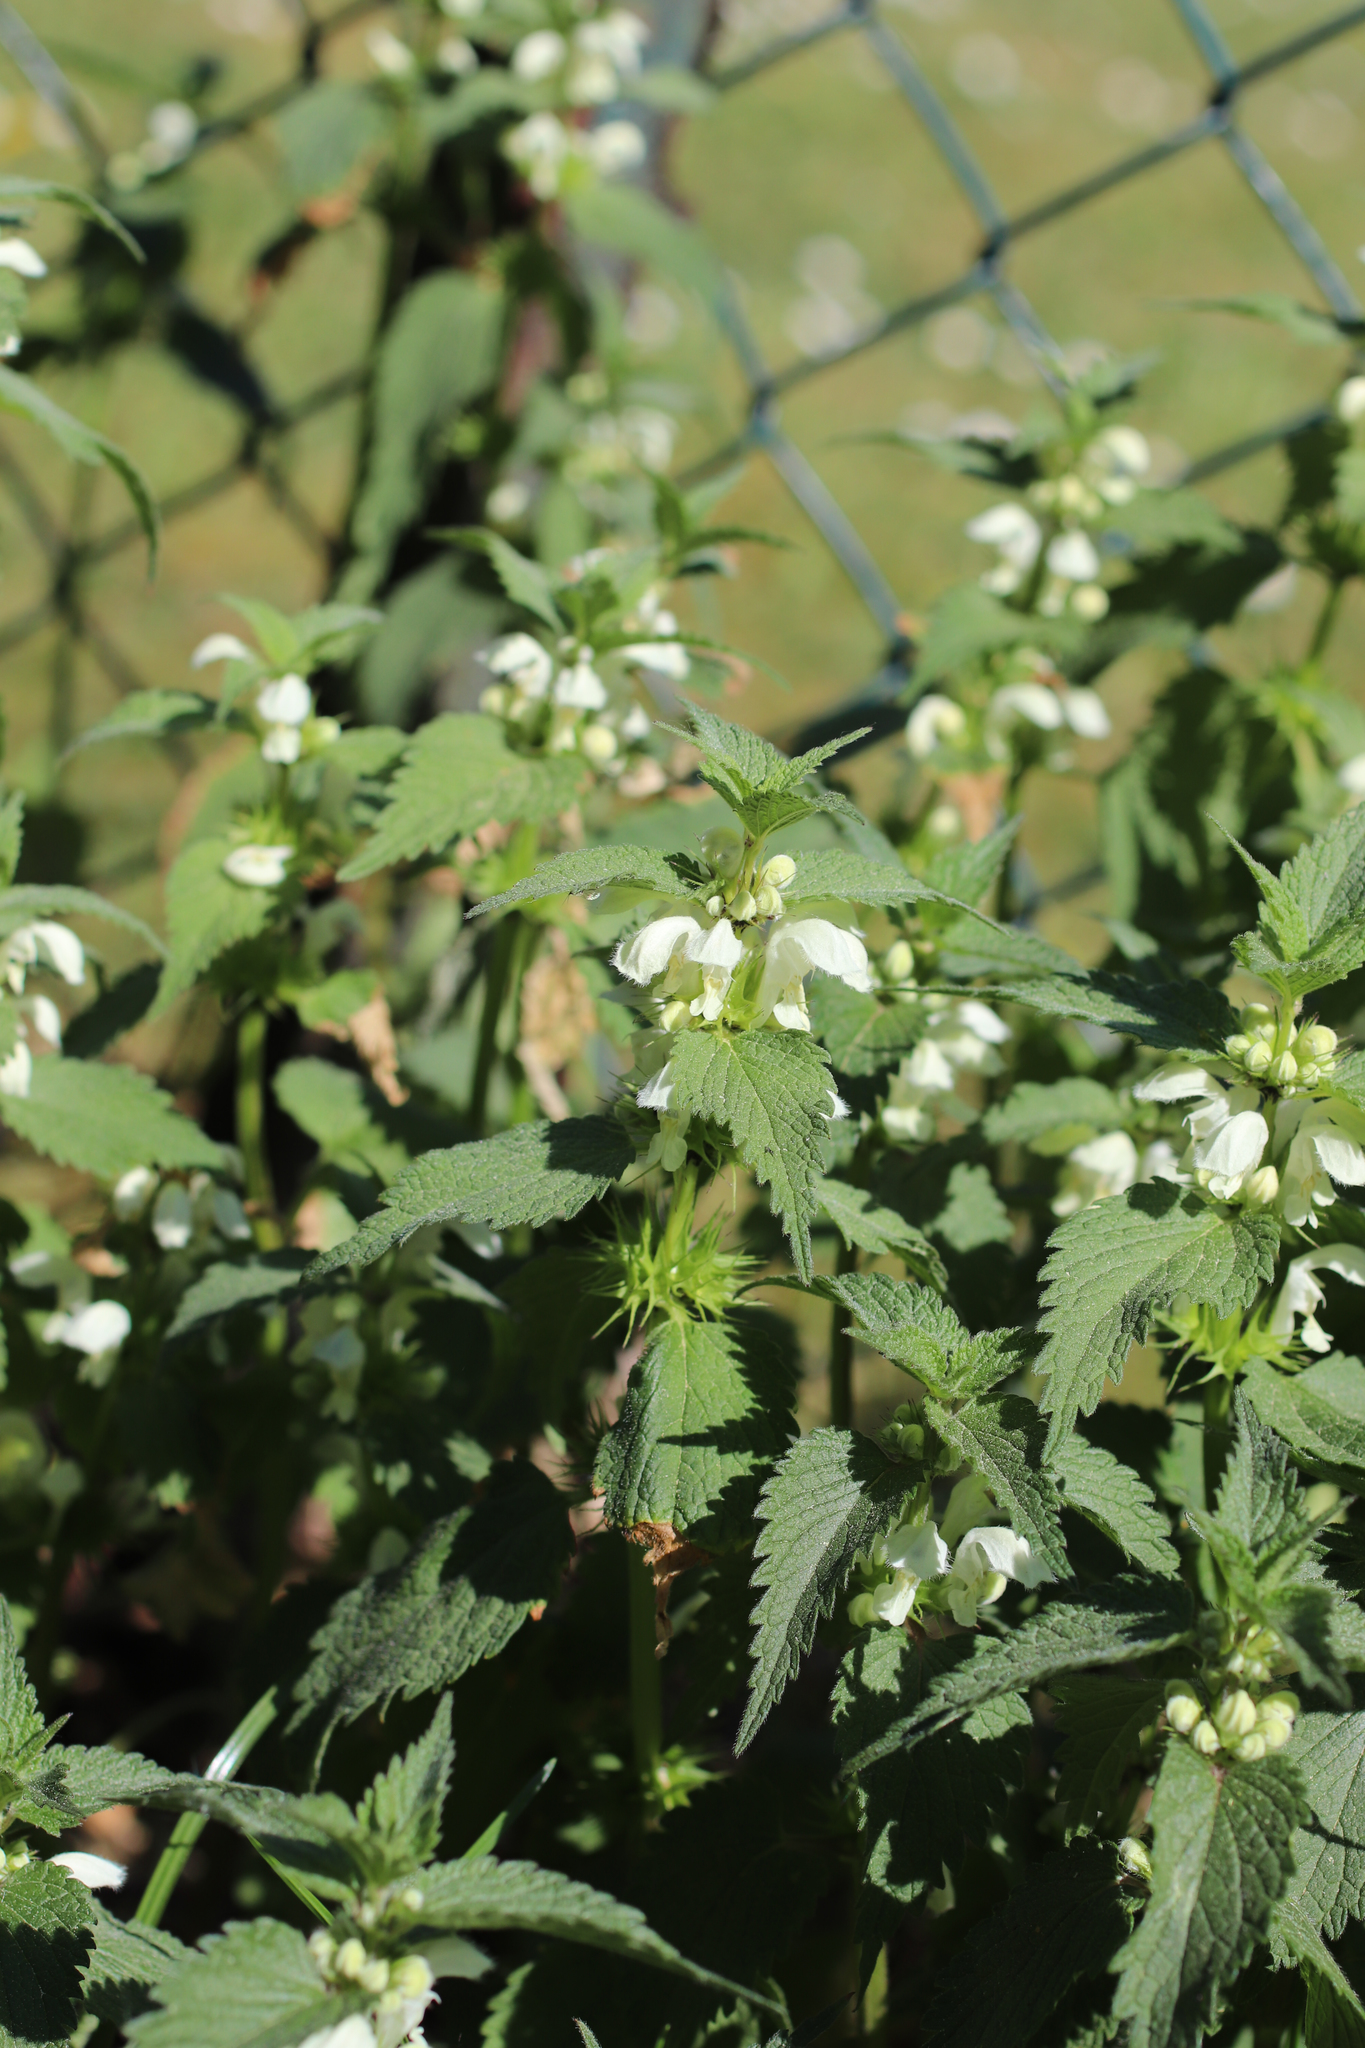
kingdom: Plantae
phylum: Tracheophyta
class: Magnoliopsida
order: Lamiales
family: Lamiaceae
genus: Lamium
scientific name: Lamium album
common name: White dead-nettle
